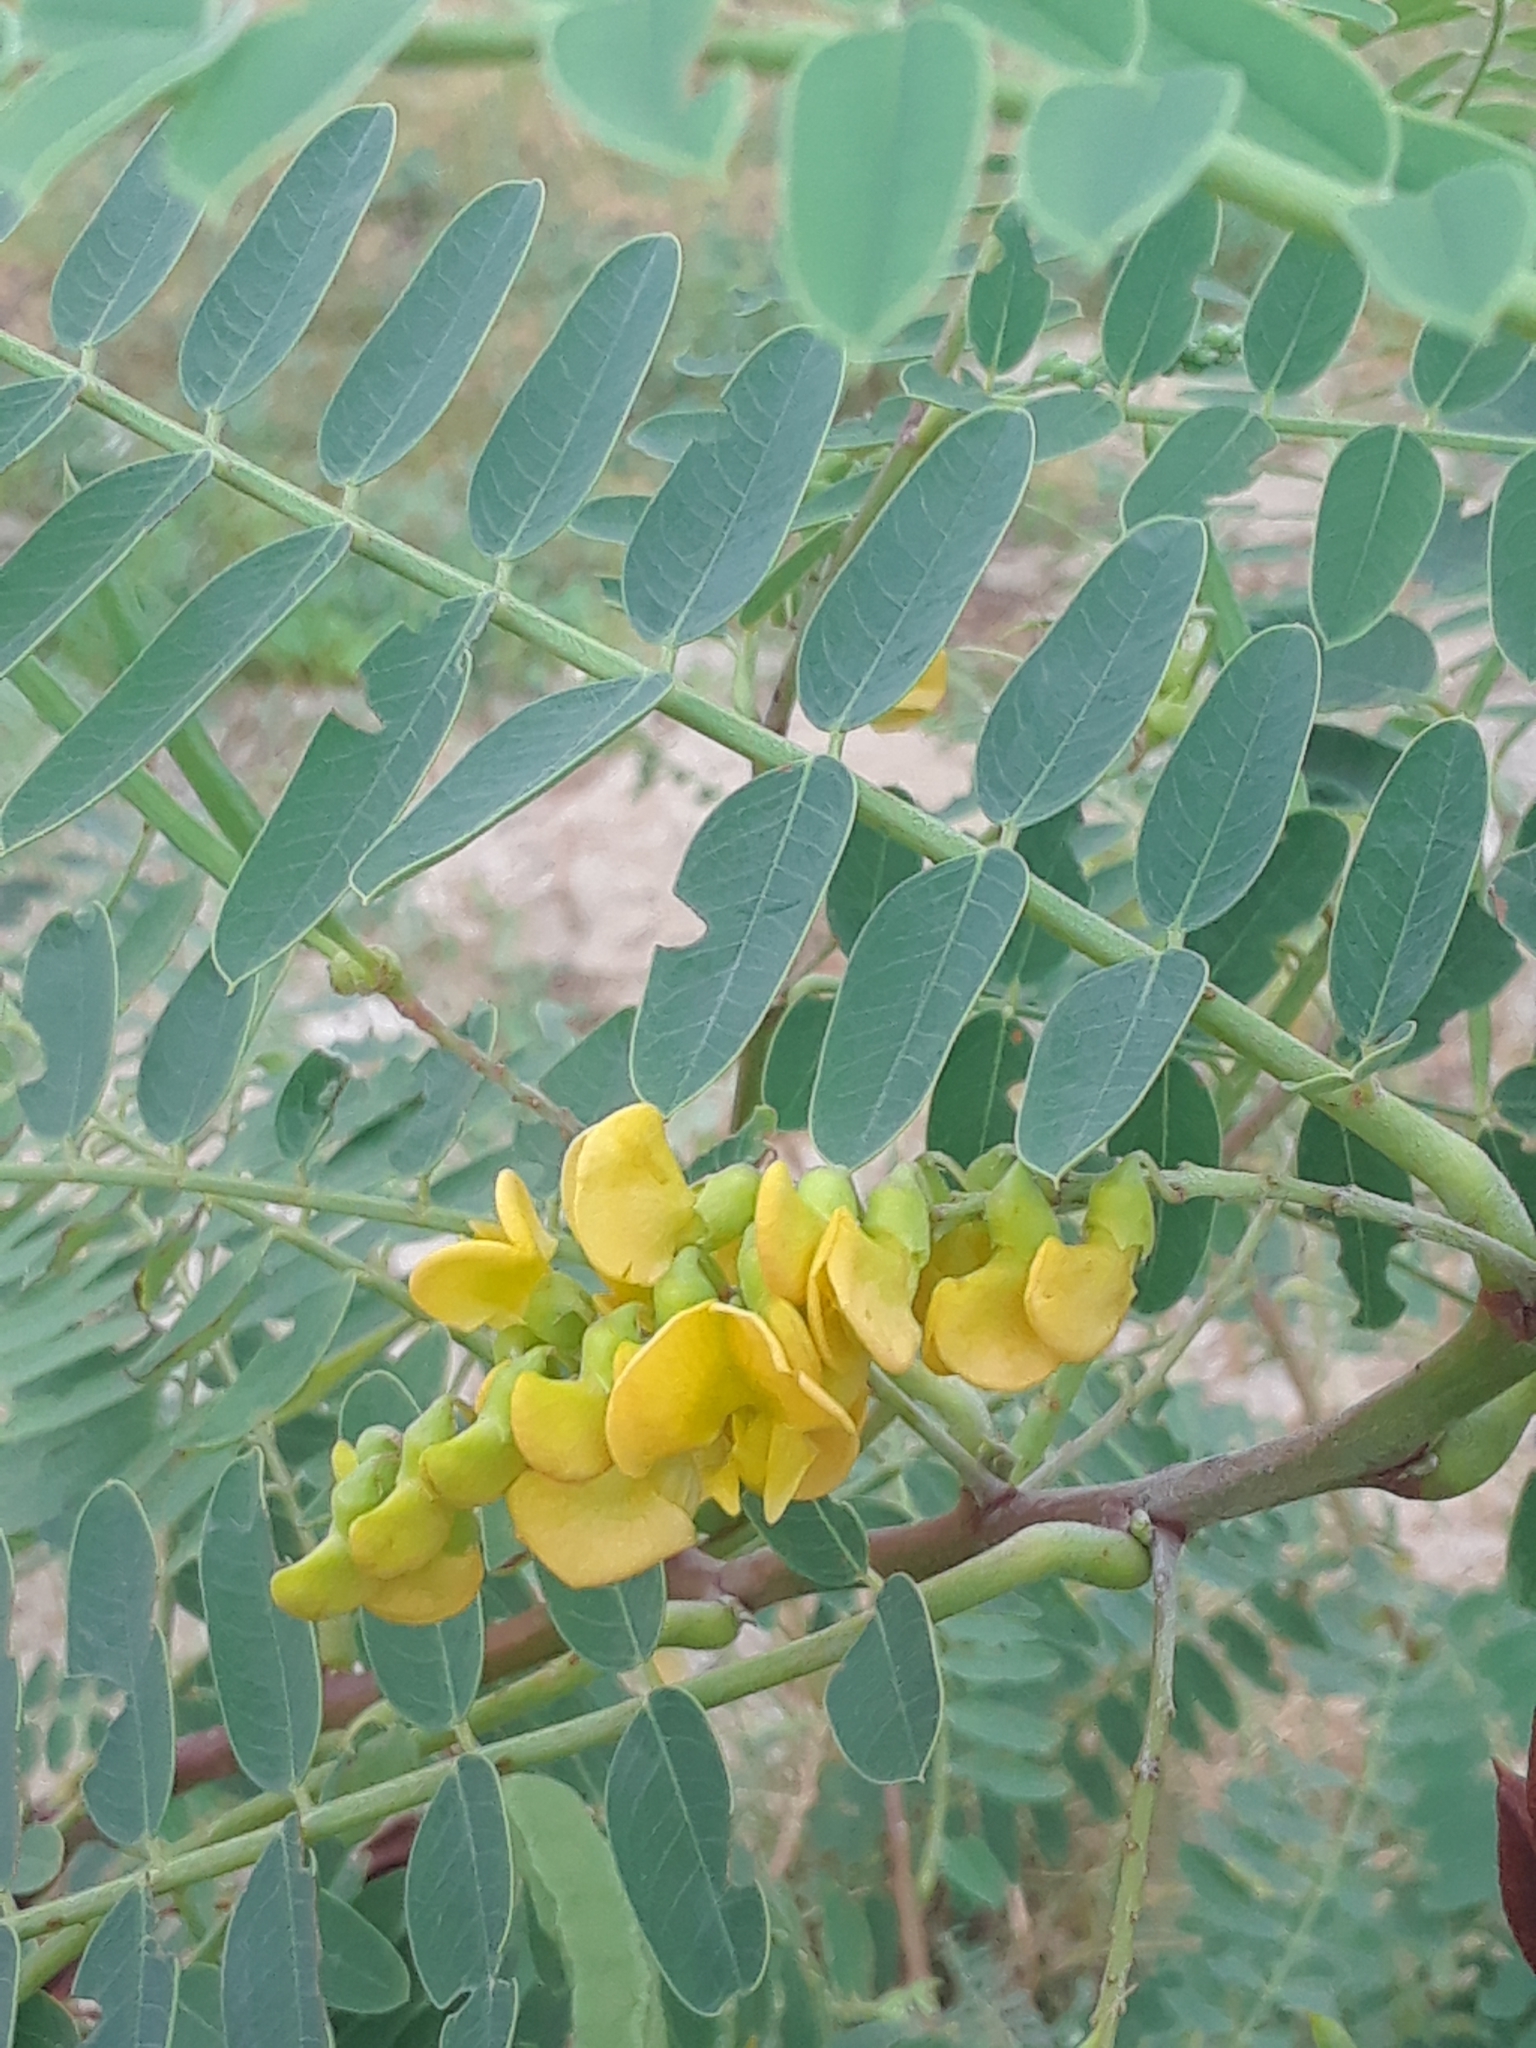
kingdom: Plantae
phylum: Tracheophyta
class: Magnoliopsida
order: Fabales
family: Fabaceae
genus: Sesbania
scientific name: Sesbania virgata
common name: Wand riverhemp
